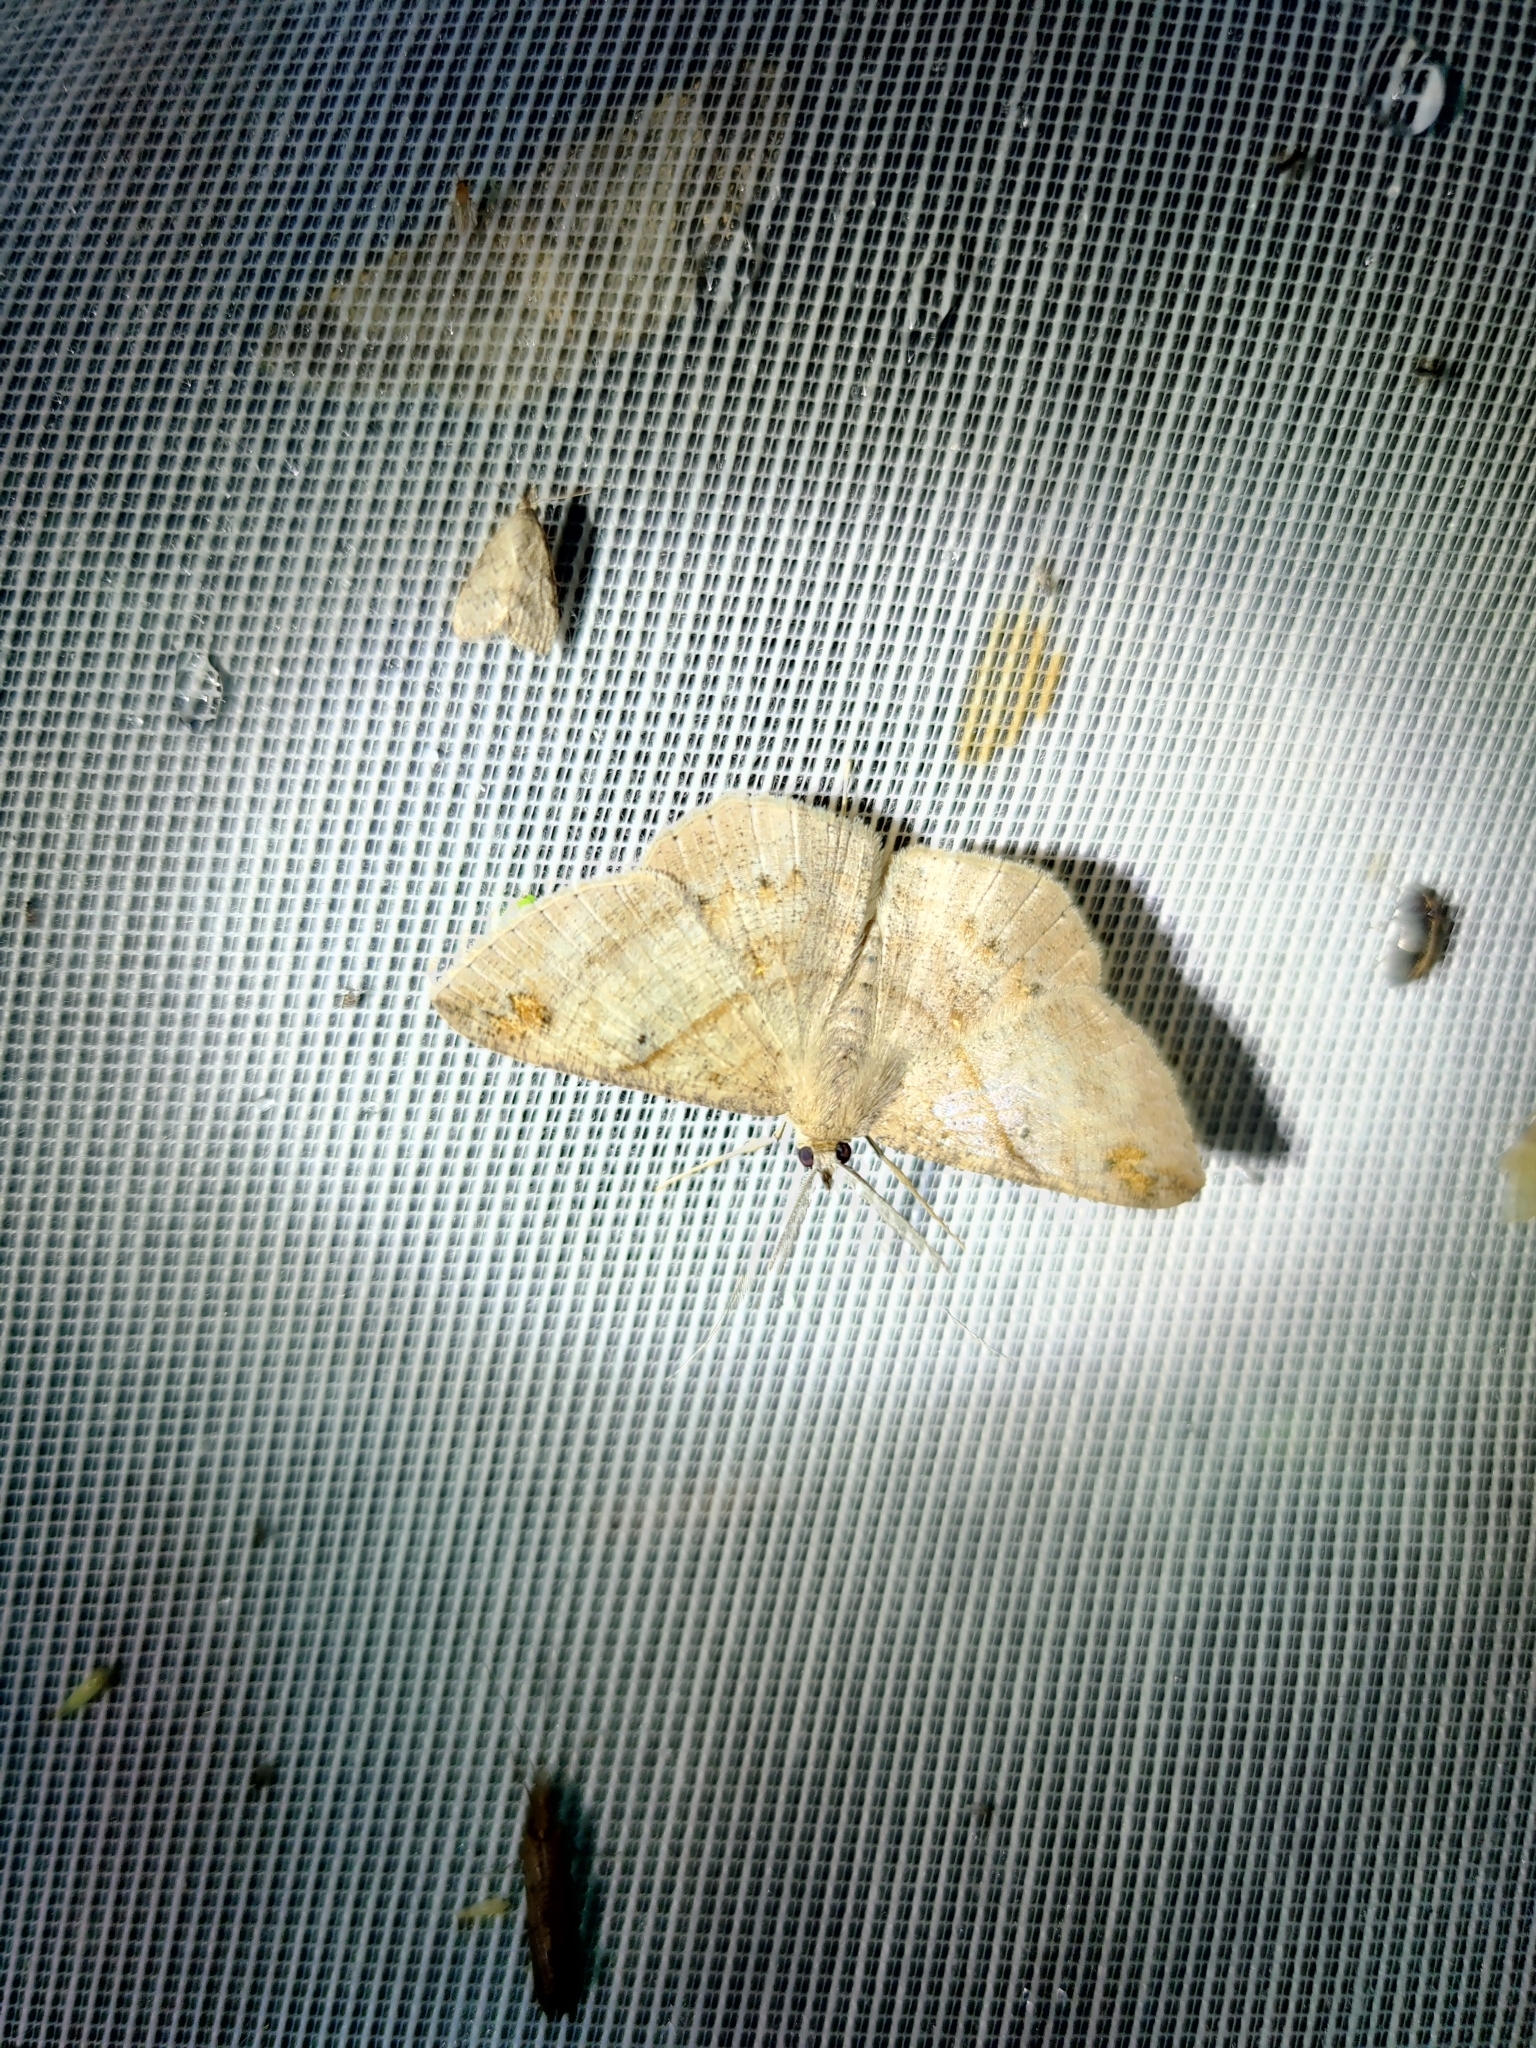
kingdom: Animalia
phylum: Arthropoda
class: Insecta
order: Lepidoptera
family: Geometridae
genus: Petelia
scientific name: Petelia medardaria
